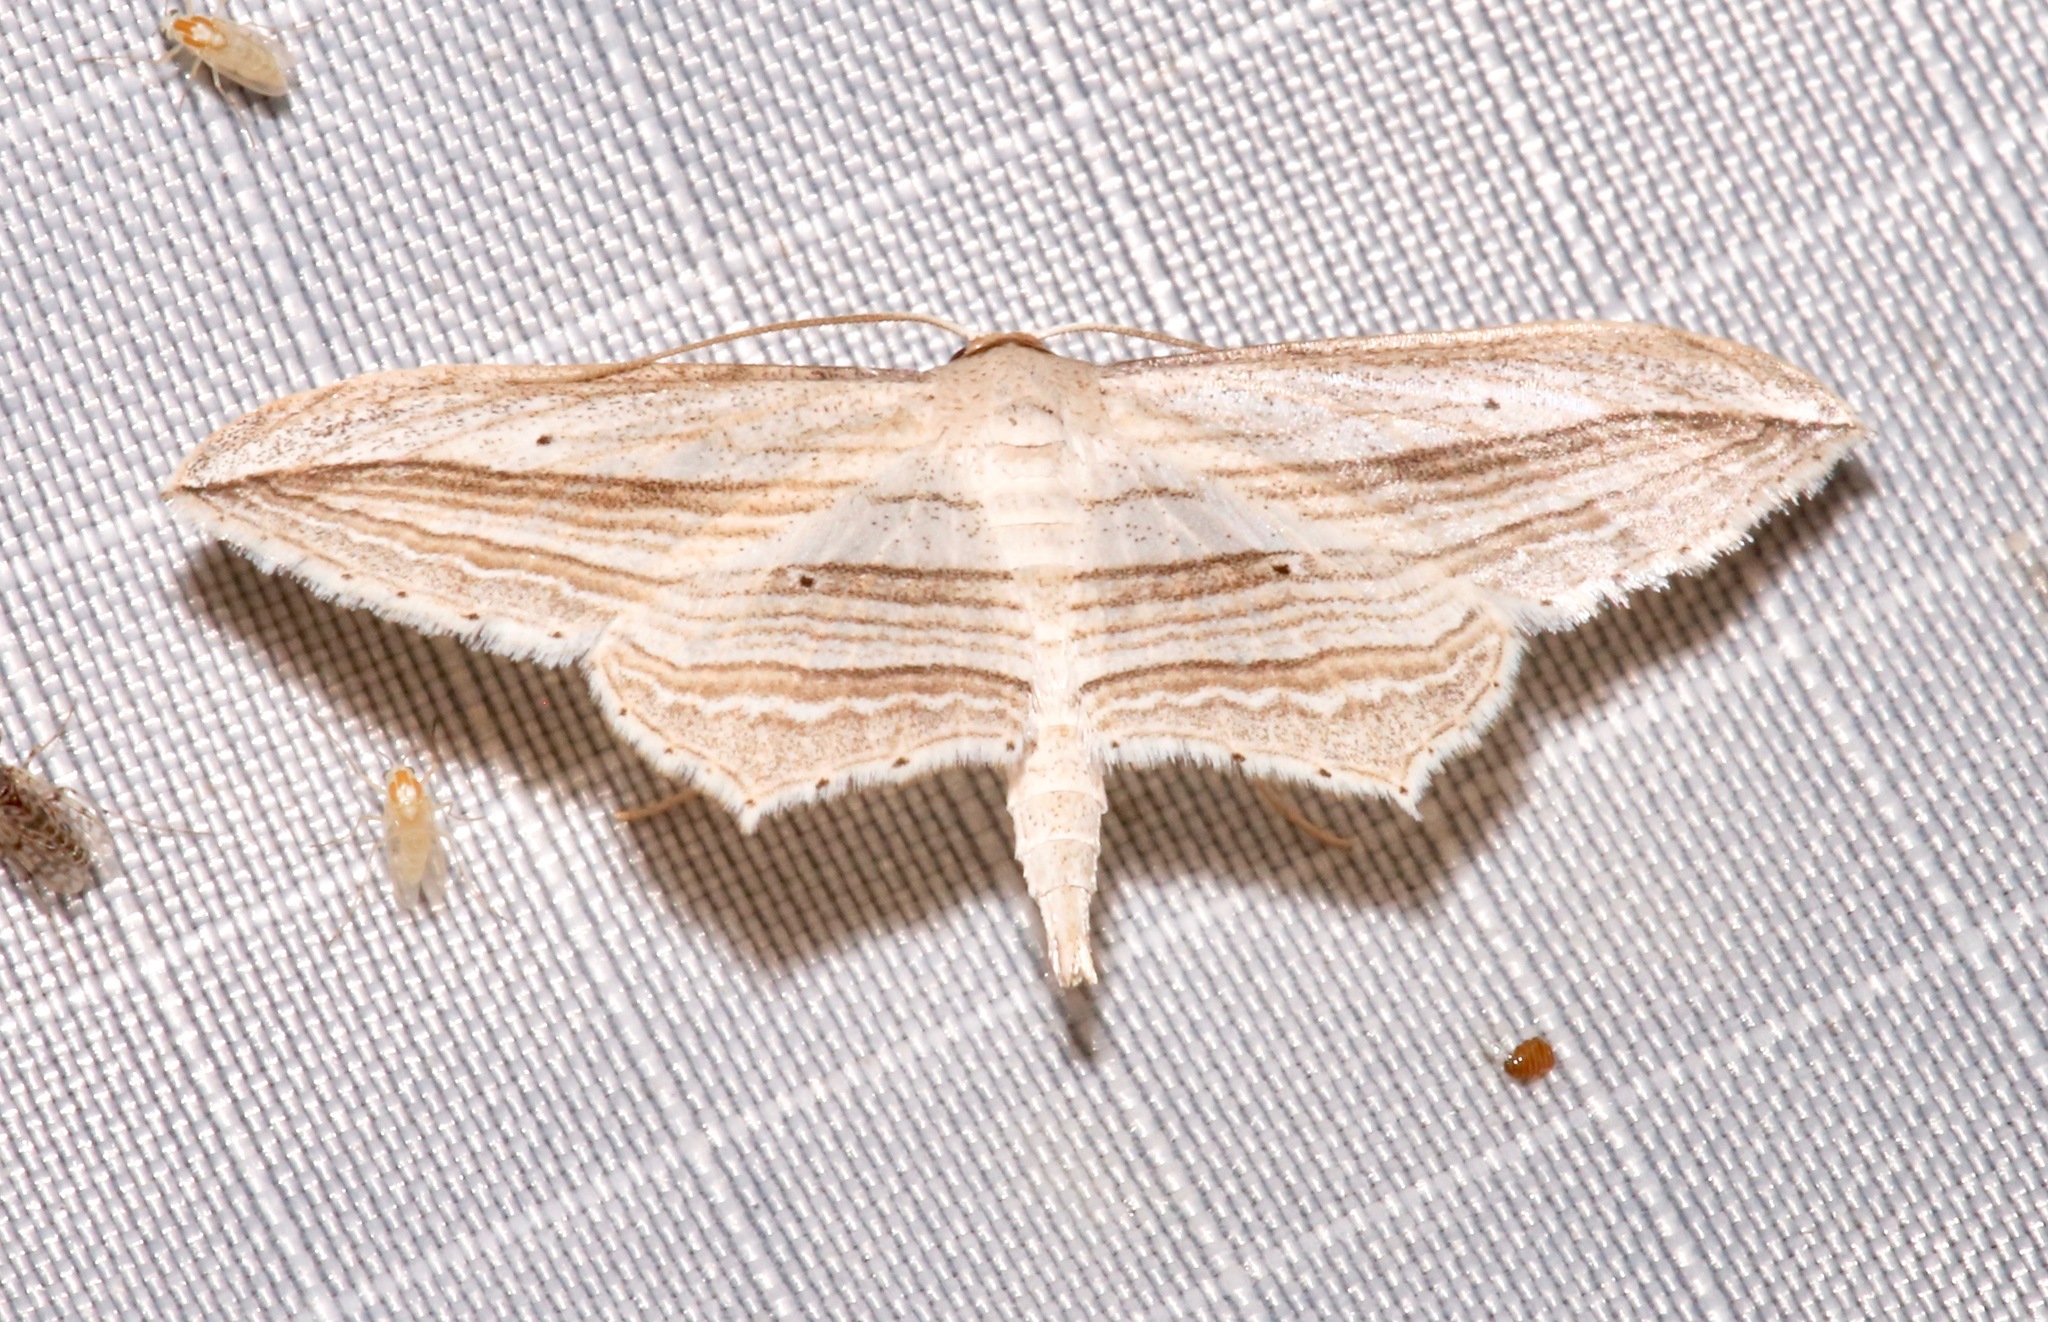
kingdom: Animalia
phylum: Arthropoda
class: Insecta
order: Lepidoptera
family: Geometridae
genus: Arcobara
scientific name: Arcobara multilineata
